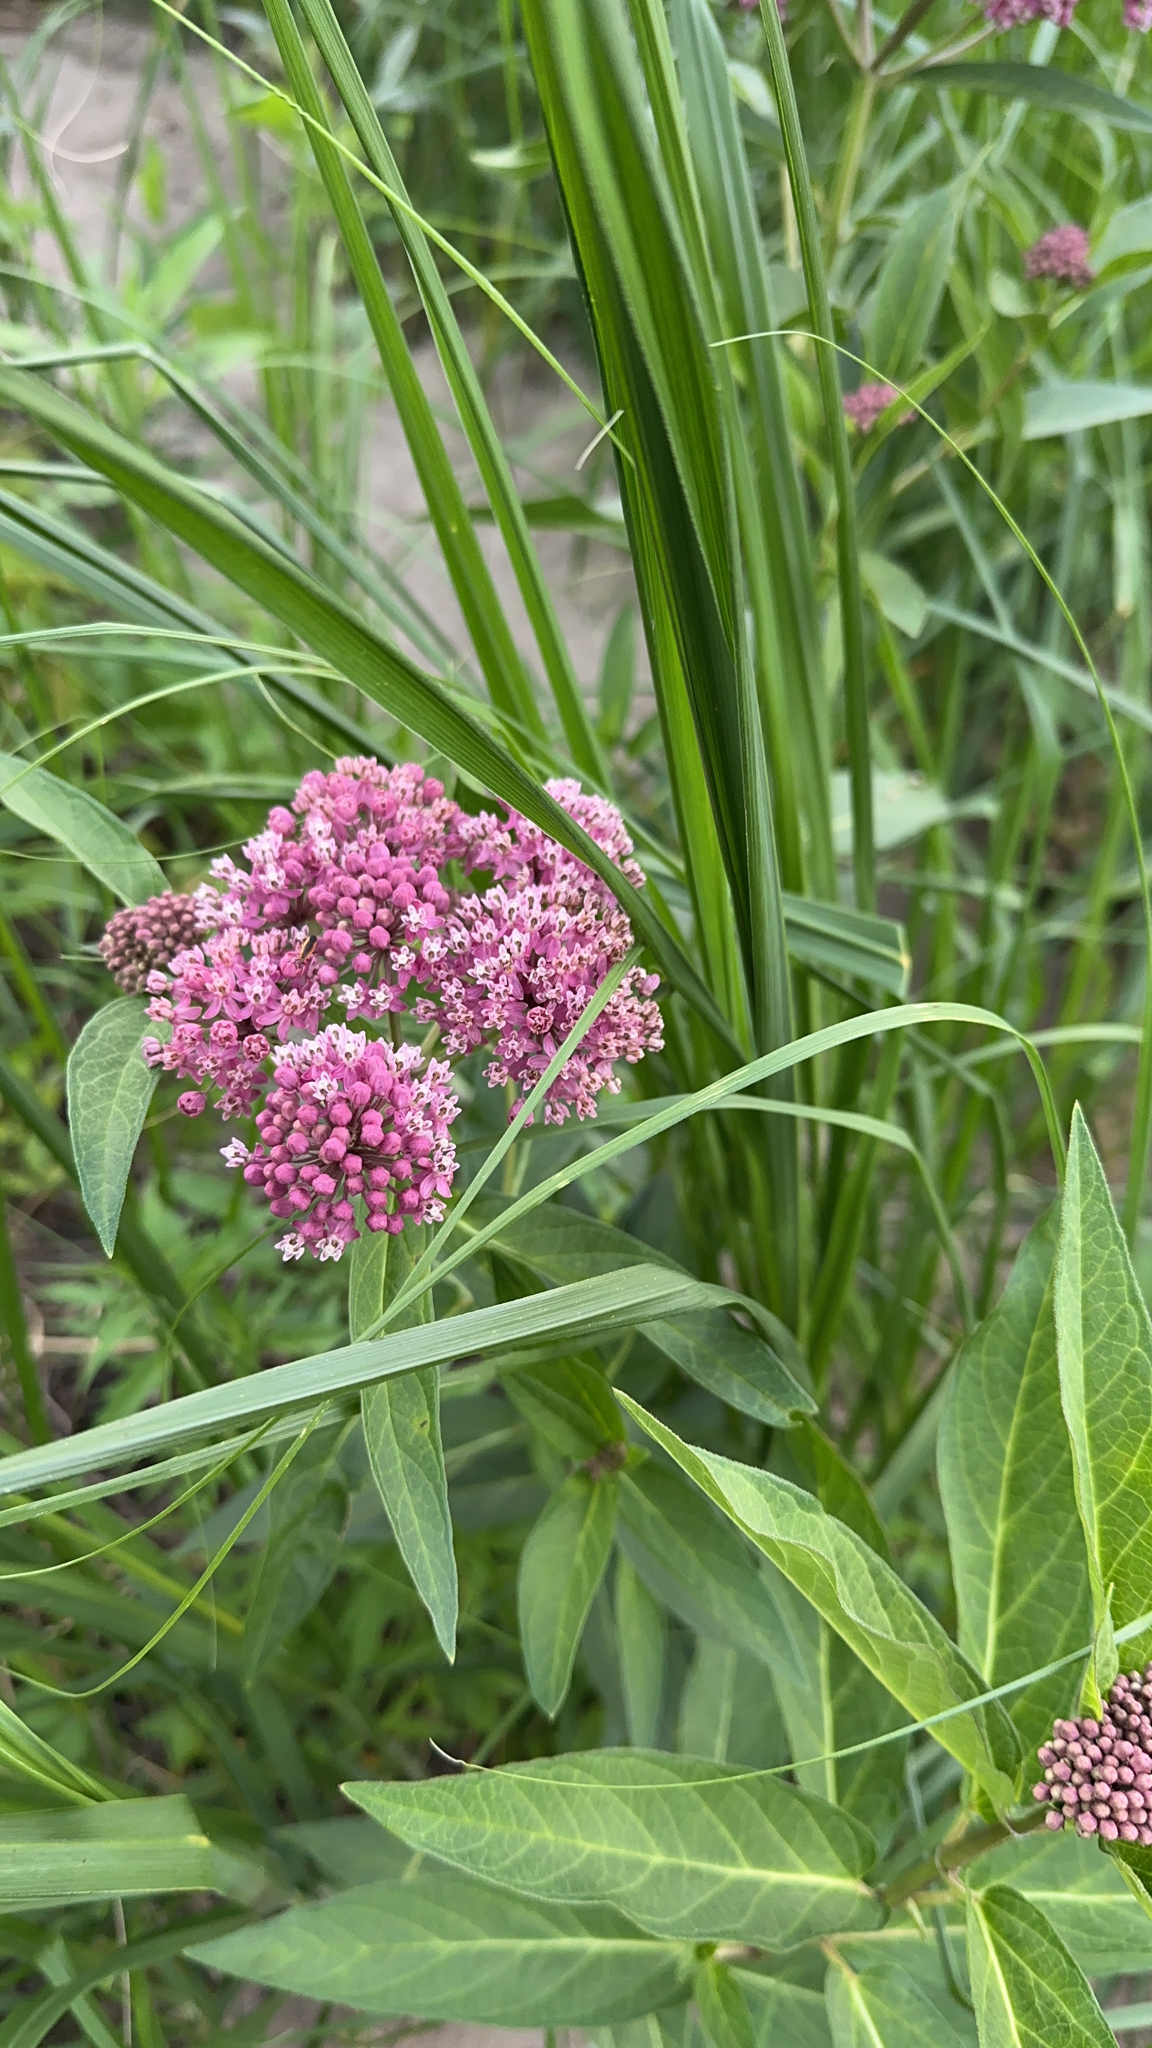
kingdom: Plantae
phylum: Tracheophyta
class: Magnoliopsida
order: Gentianales
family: Apocynaceae
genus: Asclepias
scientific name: Asclepias incarnata
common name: Swamp milkweed
